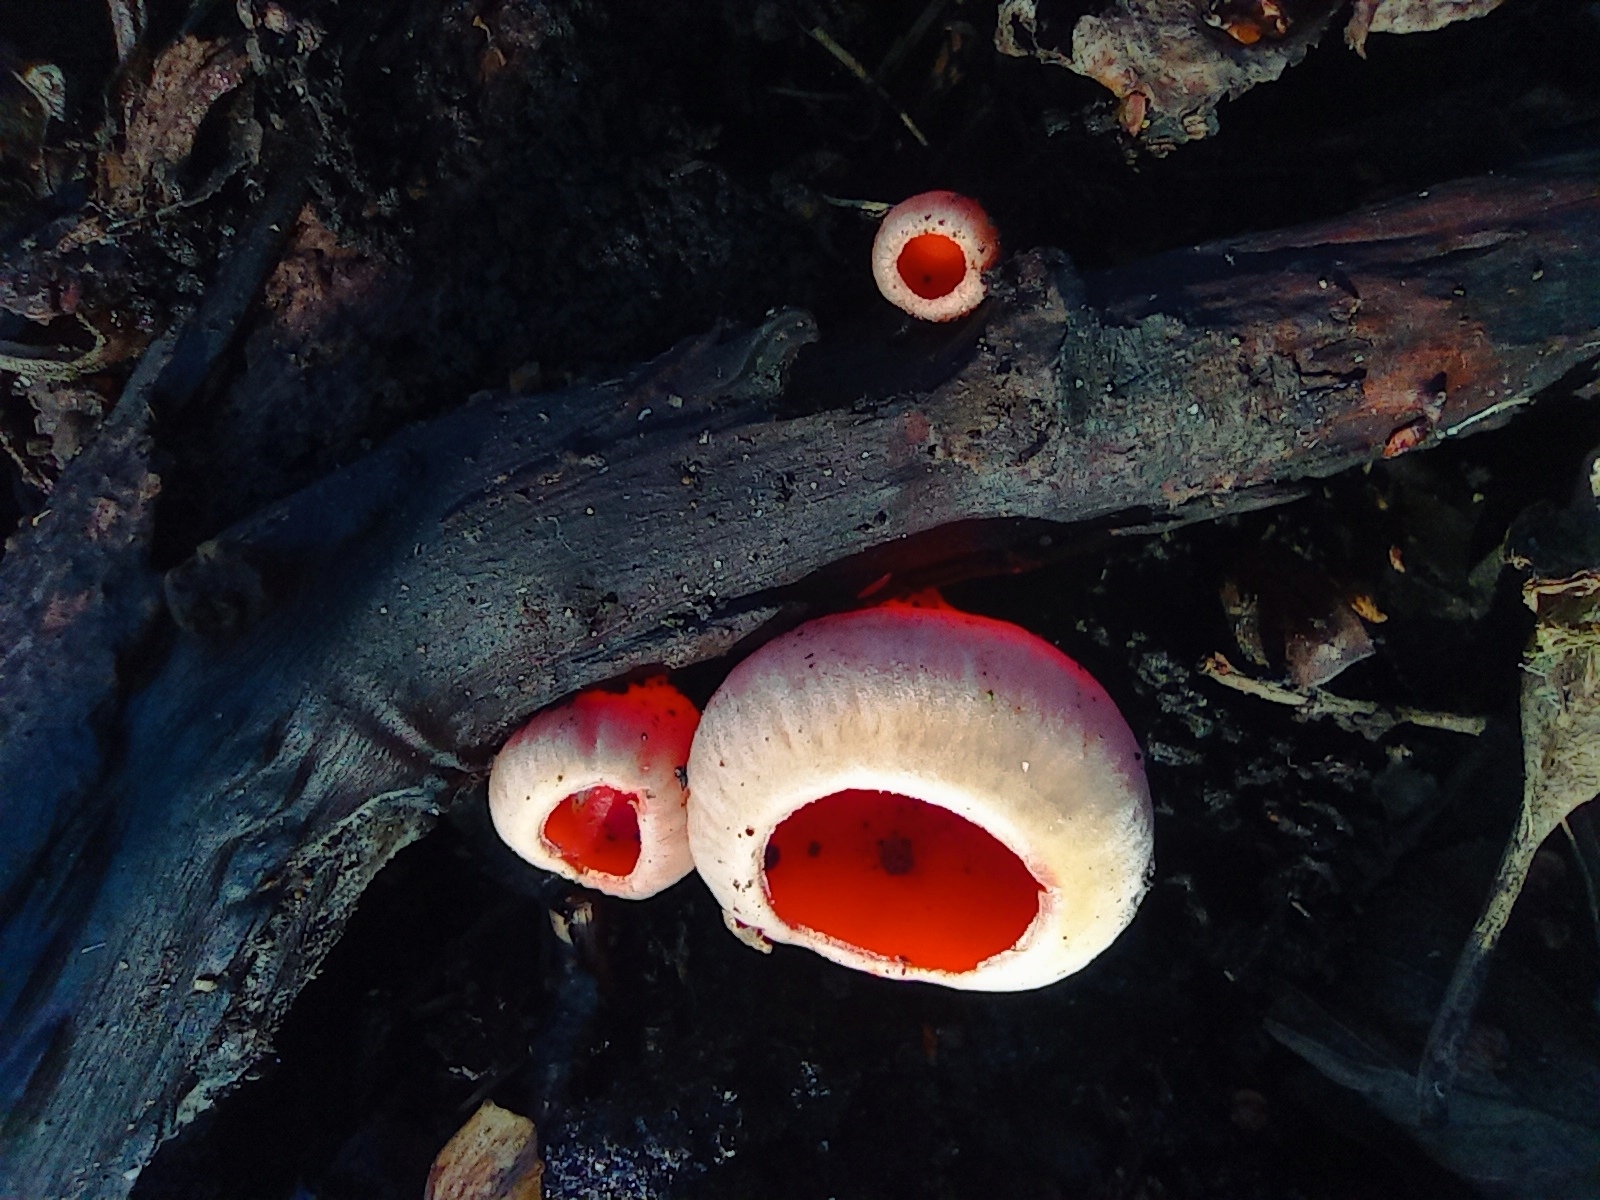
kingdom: Fungi
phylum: Ascomycota
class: Pezizomycetes
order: Pezizales
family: Sarcoscyphaceae
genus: Sarcoscypha
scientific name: Sarcoscypha
